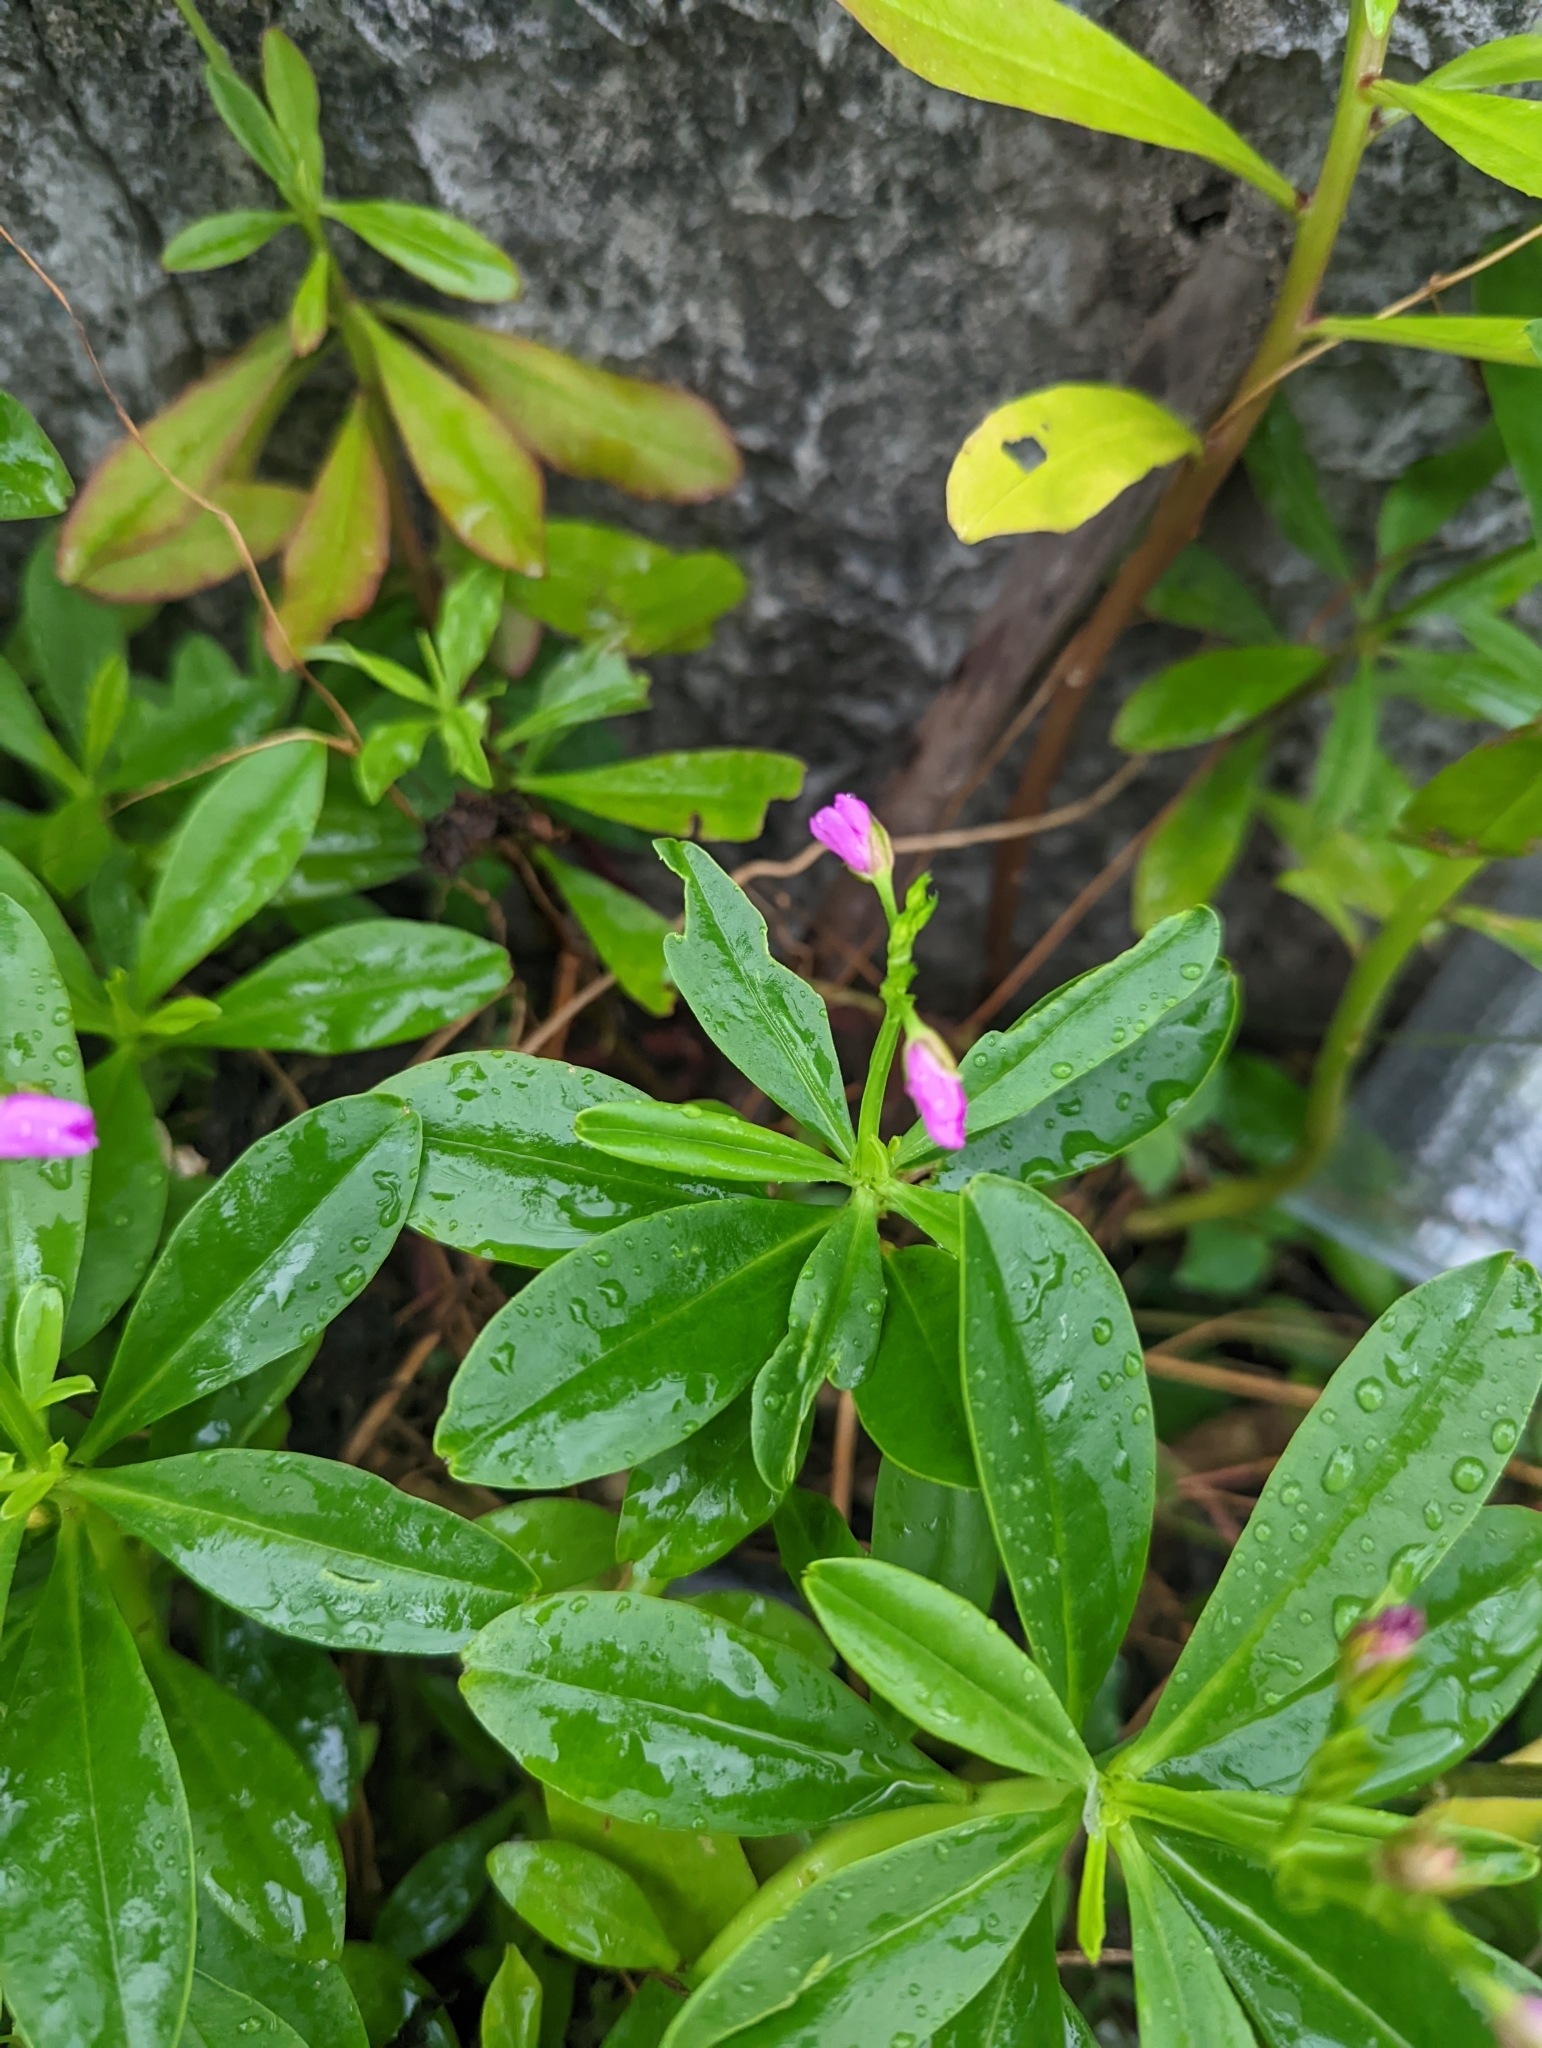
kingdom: Plantae
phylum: Tracheophyta
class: Magnoliopsida
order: Caryophyllales
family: Talinaceae
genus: Talinum
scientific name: Talinum fruticosum
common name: Verdolaga-francesa
